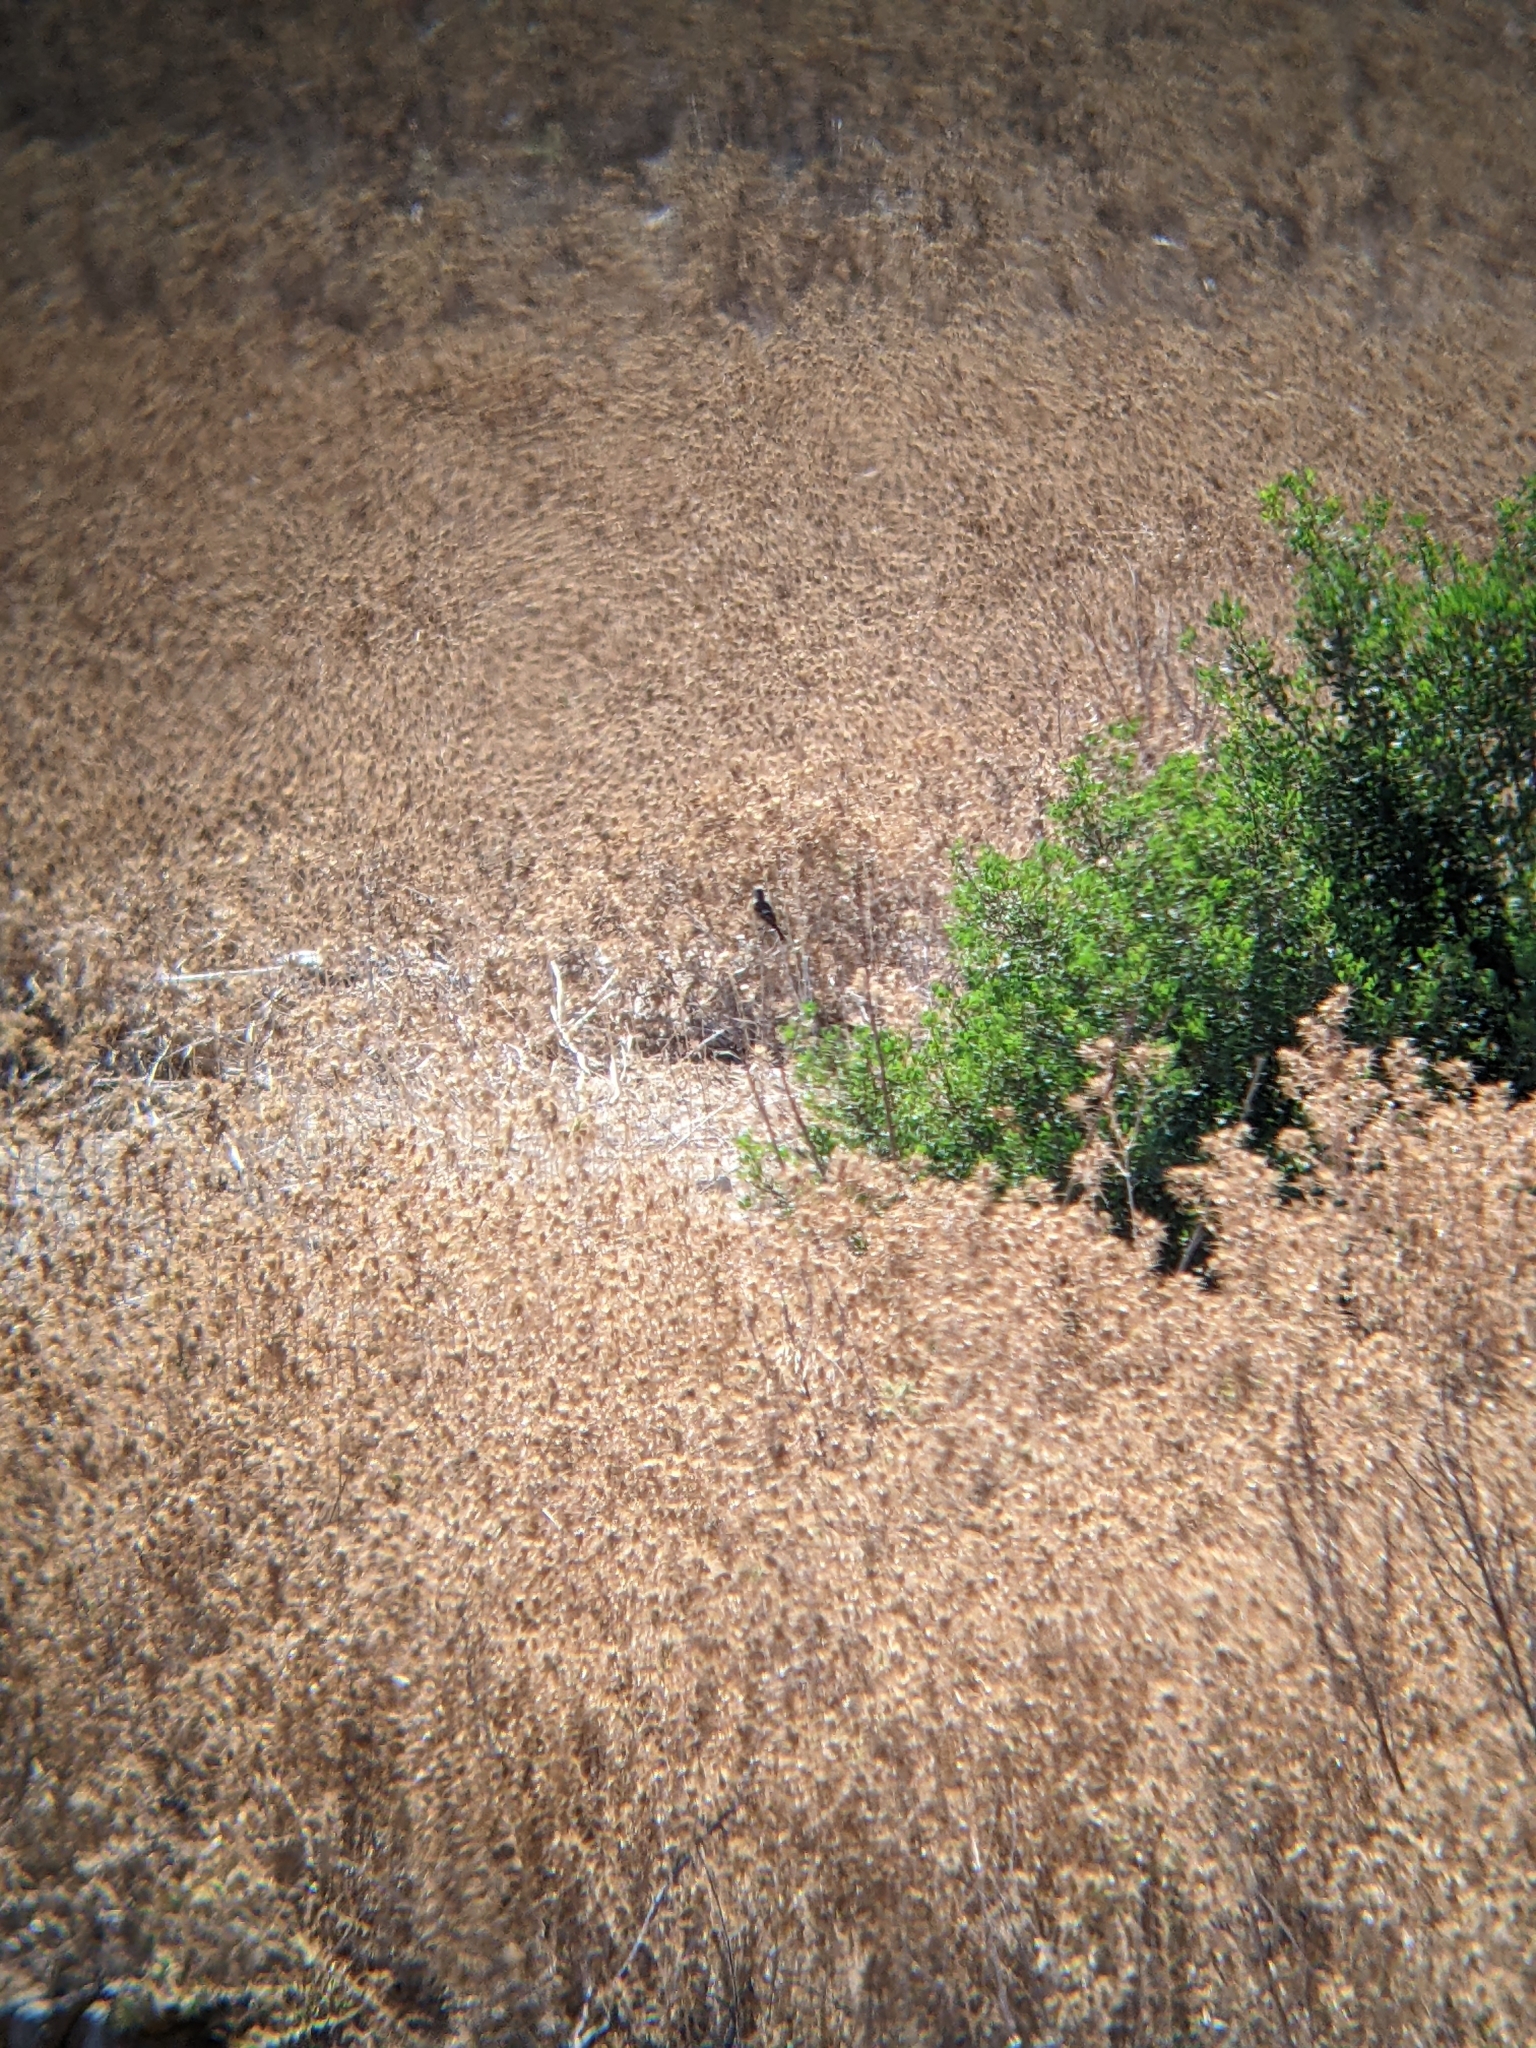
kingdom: Animalia
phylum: Chordata
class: Aves
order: Passeriformes
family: Muscicapidae
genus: Saxicola
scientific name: Saxicola rubicola
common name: European stonechat
